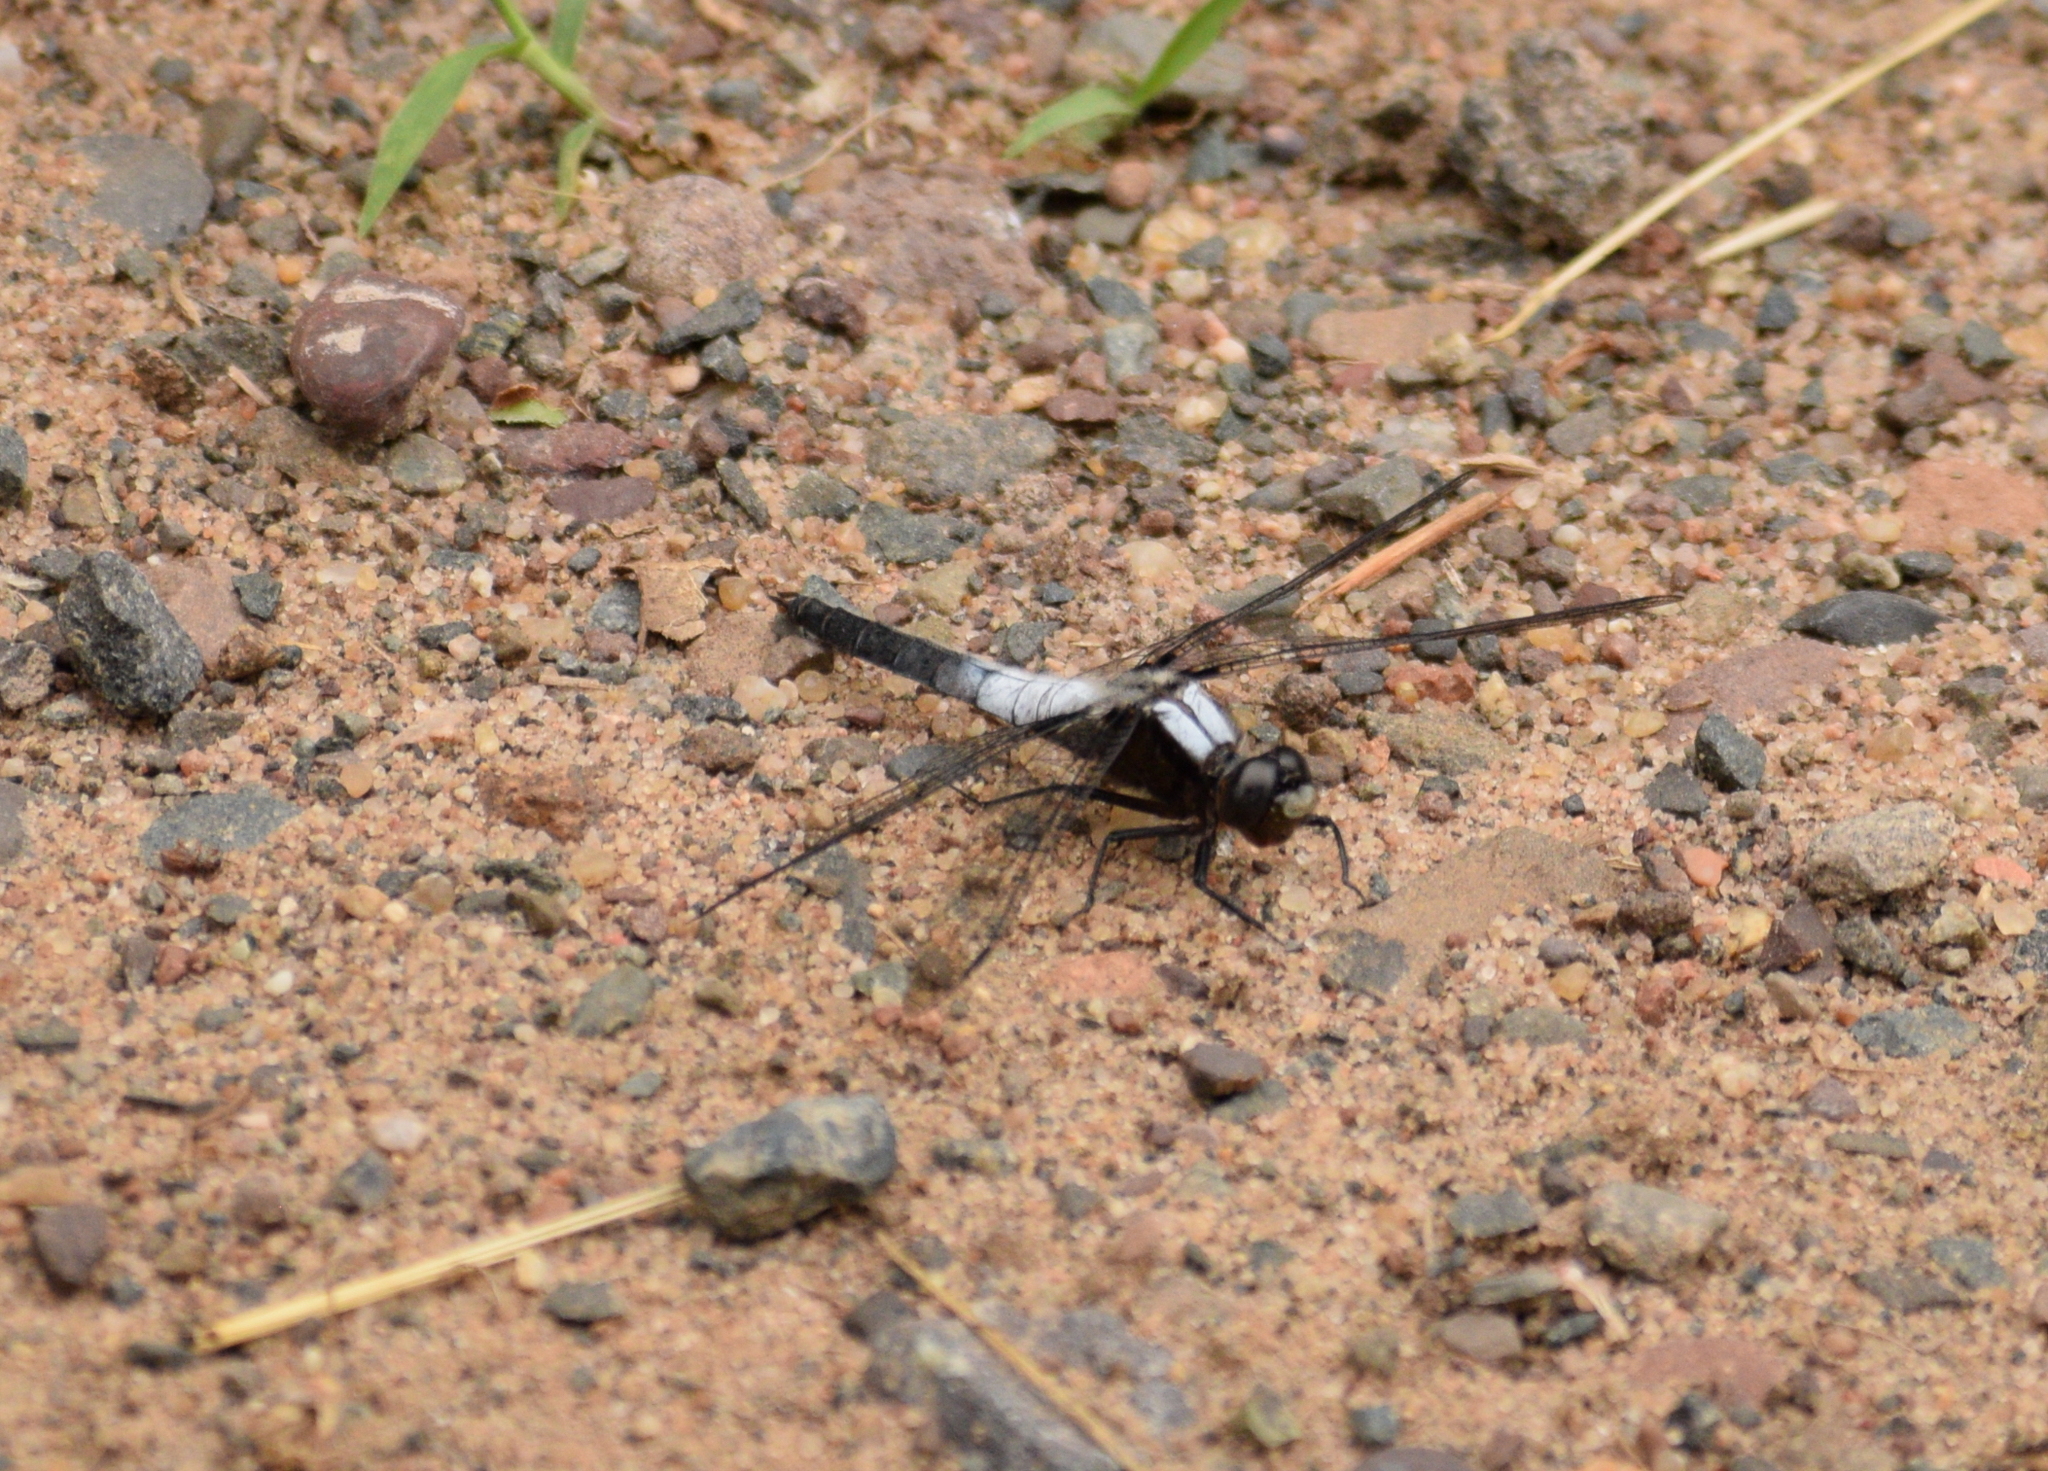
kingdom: Animalia
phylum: Arthropoda
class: Insecta
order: Odonata
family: Libellulidae
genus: Ladona
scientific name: Ladona julia
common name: Chalk-fronted corporal
